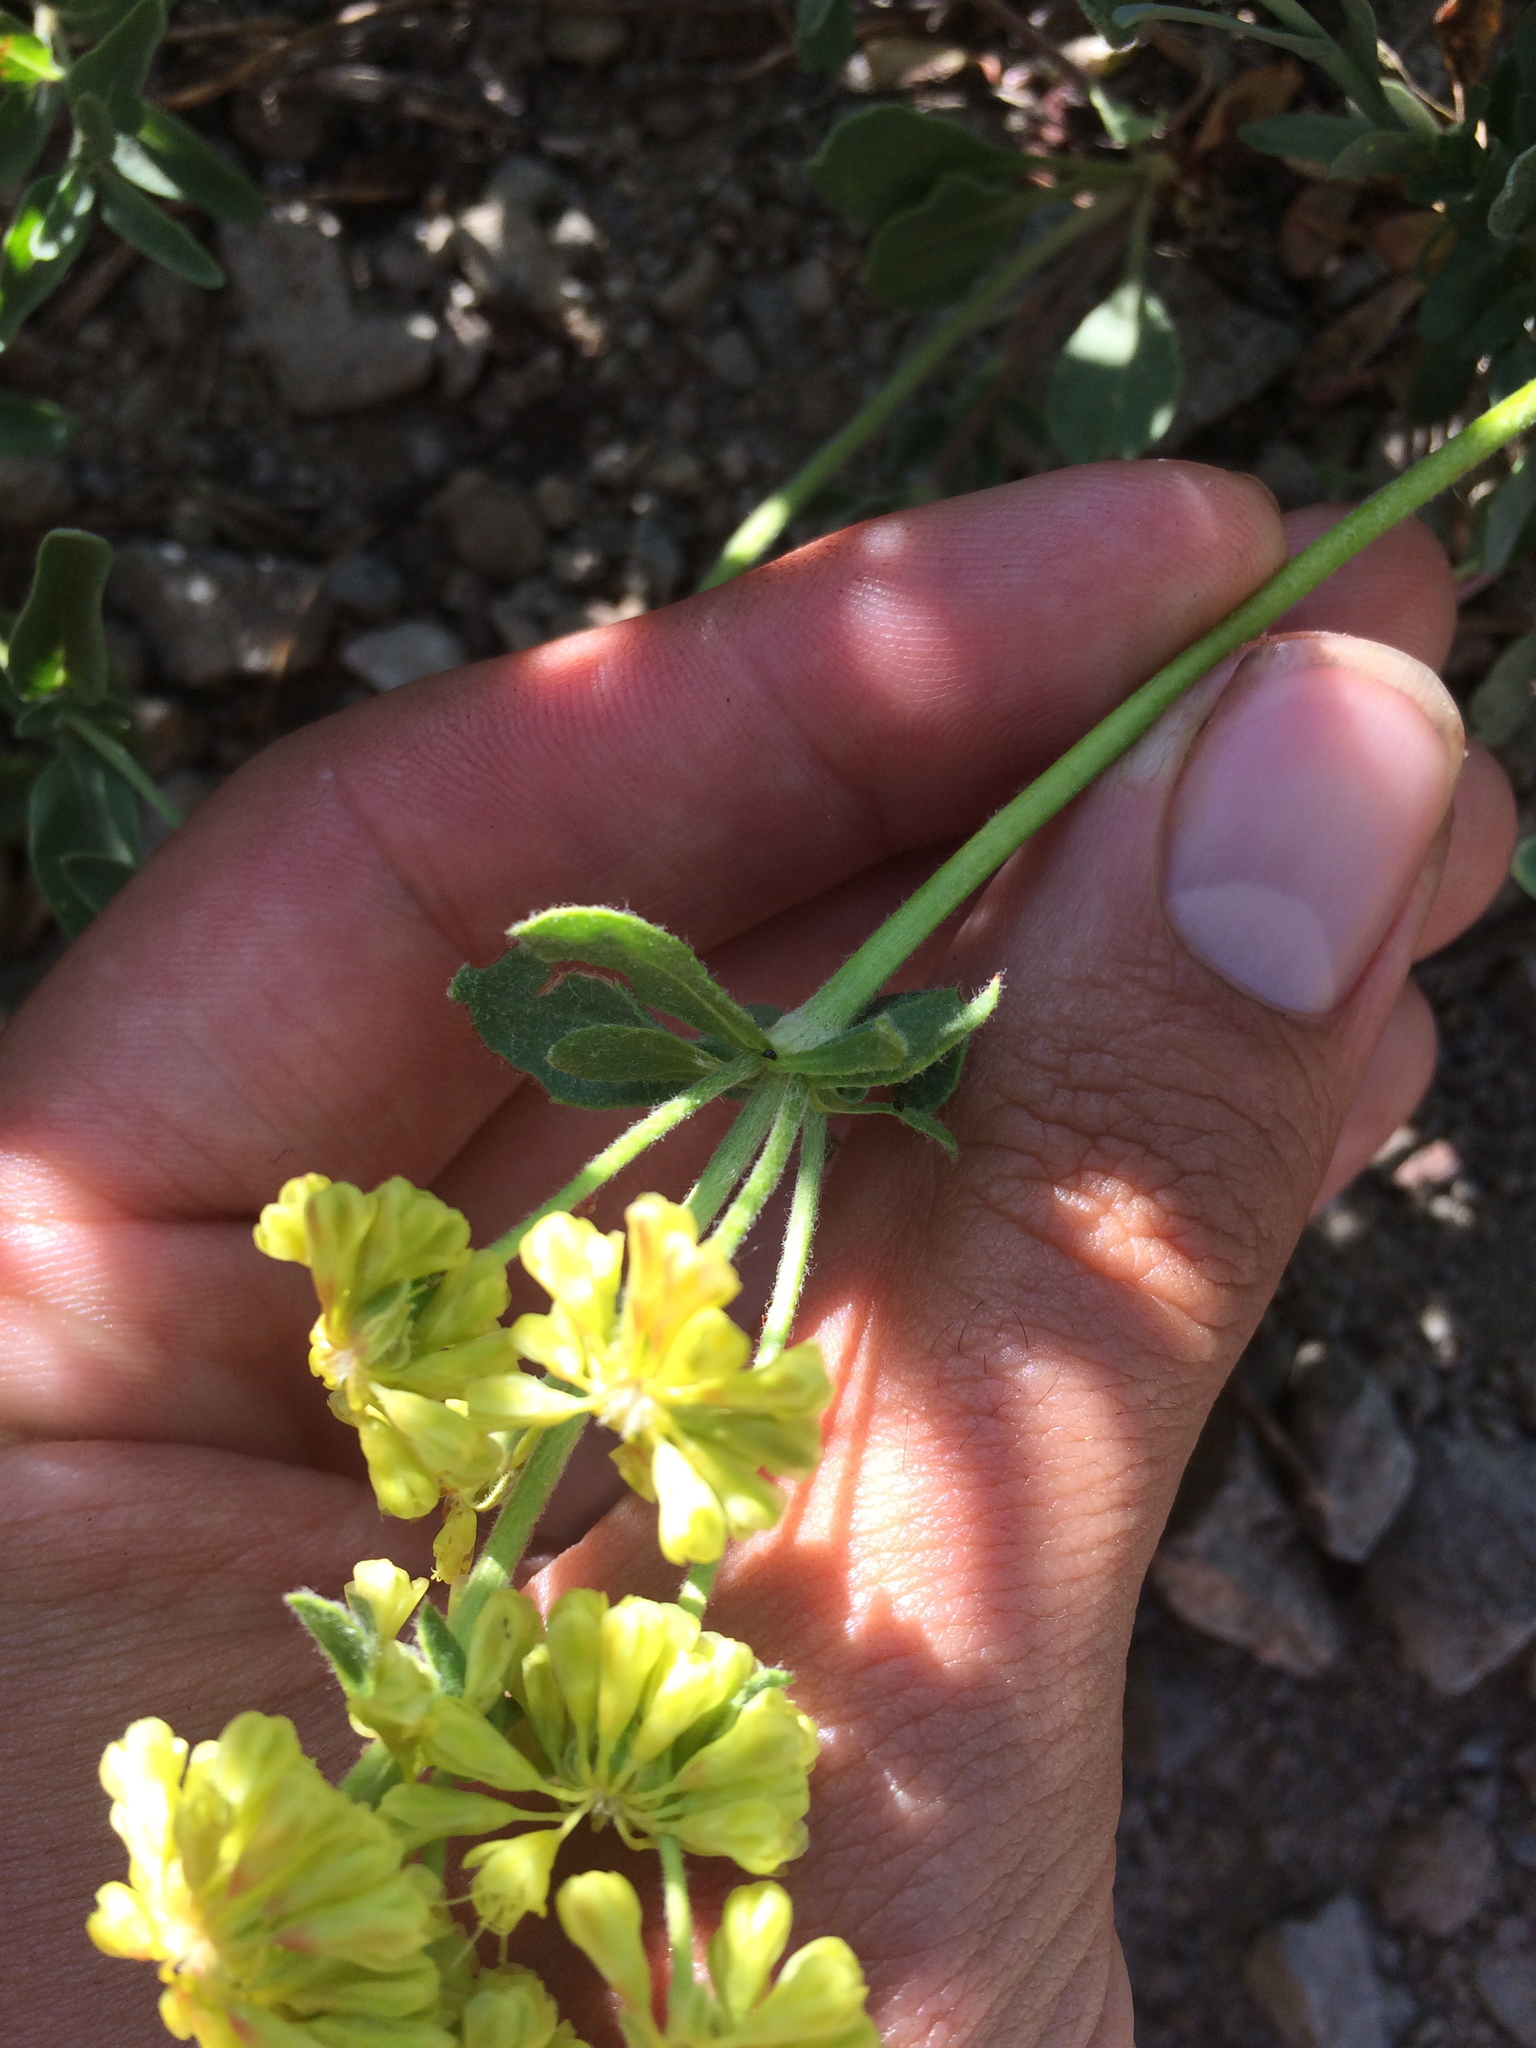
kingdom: Plantae
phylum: Tracheophyta
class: Magnoliopsida
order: Caryophyllales
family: Polygonaceae
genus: Eriogonum
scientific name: Eriogonum umbellatum
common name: Sulfur-buckwheat
